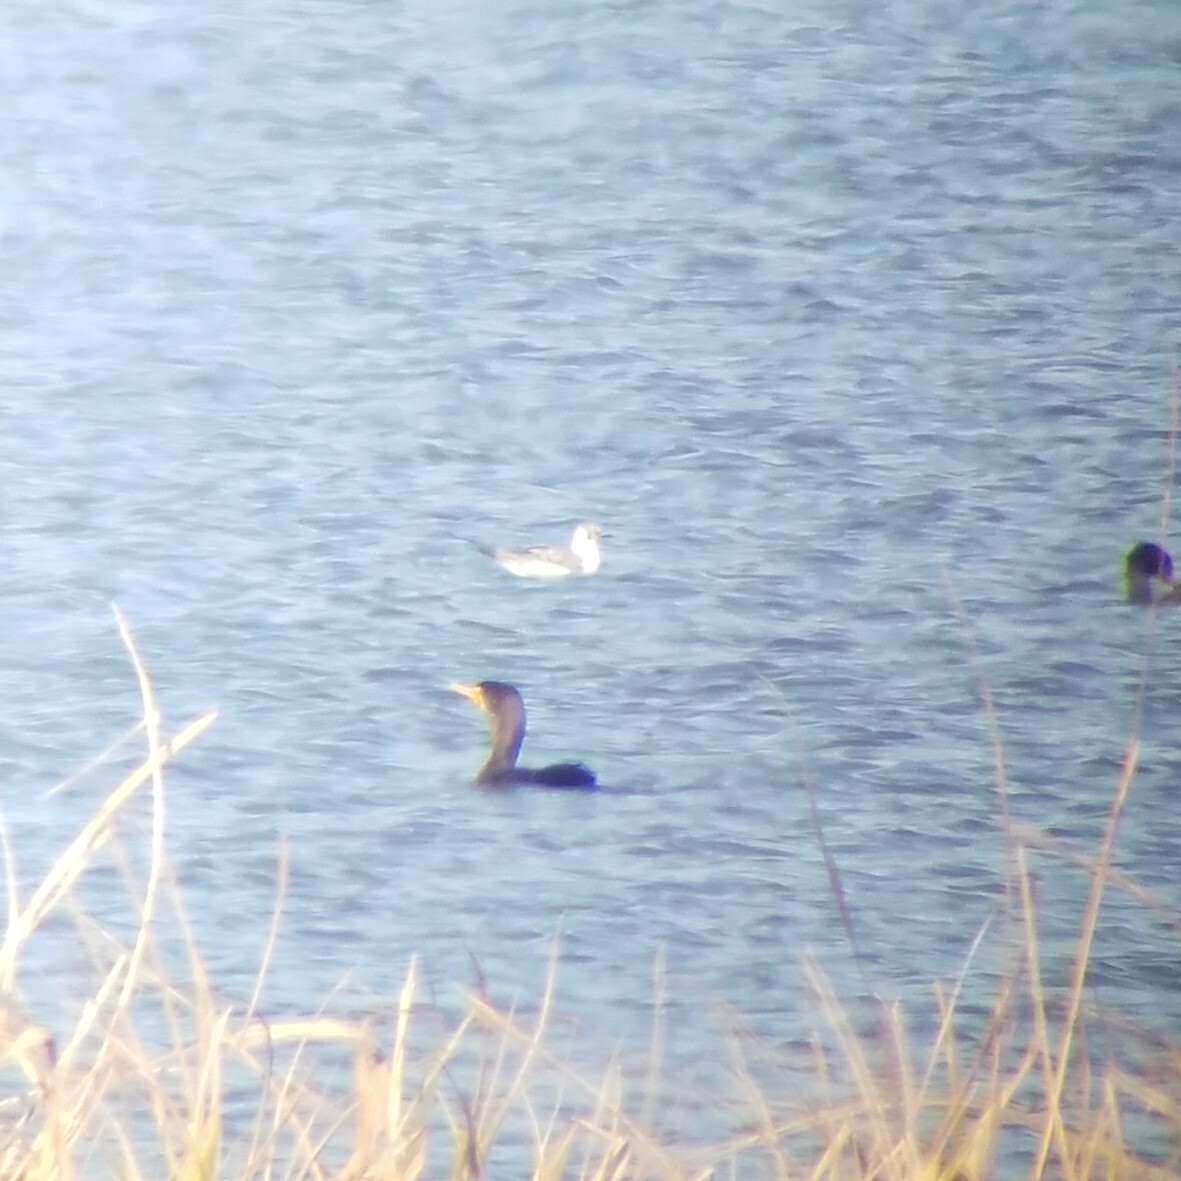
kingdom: Animalia
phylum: Chordata
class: Aves
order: Charadriiformes
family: Laridae
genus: Chroicocephalus
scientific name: Chroicocephalus philadelphia
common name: Bonaparte's gull
